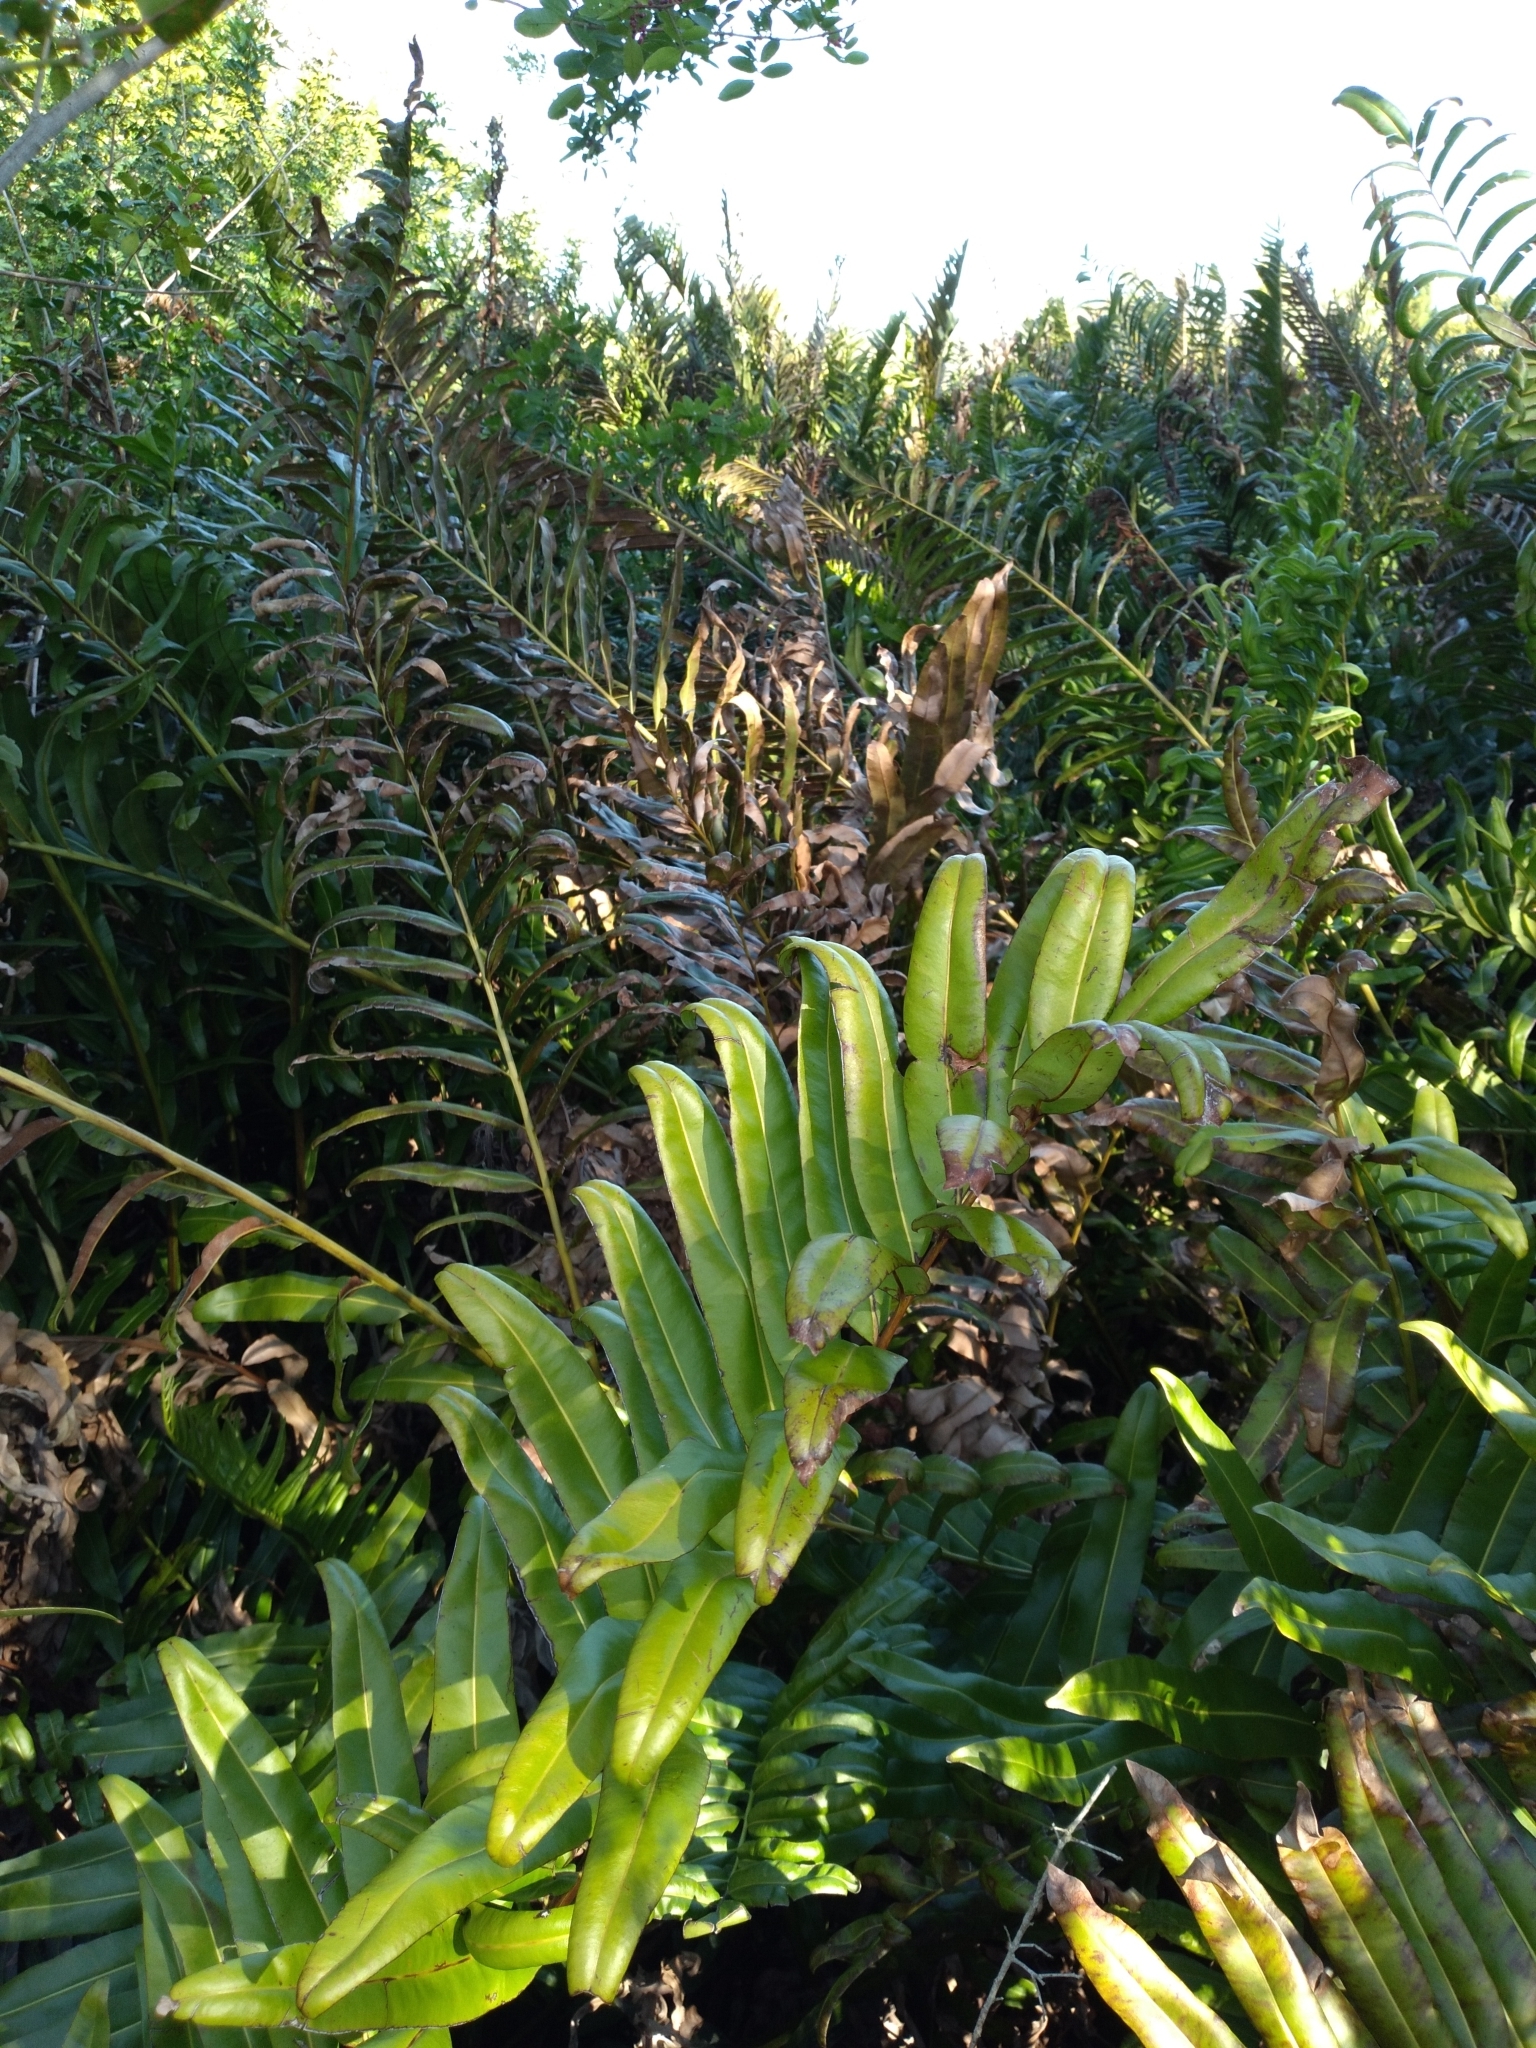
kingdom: Plantae
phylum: Tracheophyta
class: Polypodiopsida
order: Polypodiales
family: Pteridaceae
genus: Acrostichum
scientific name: Acrostichum danaeifolium
